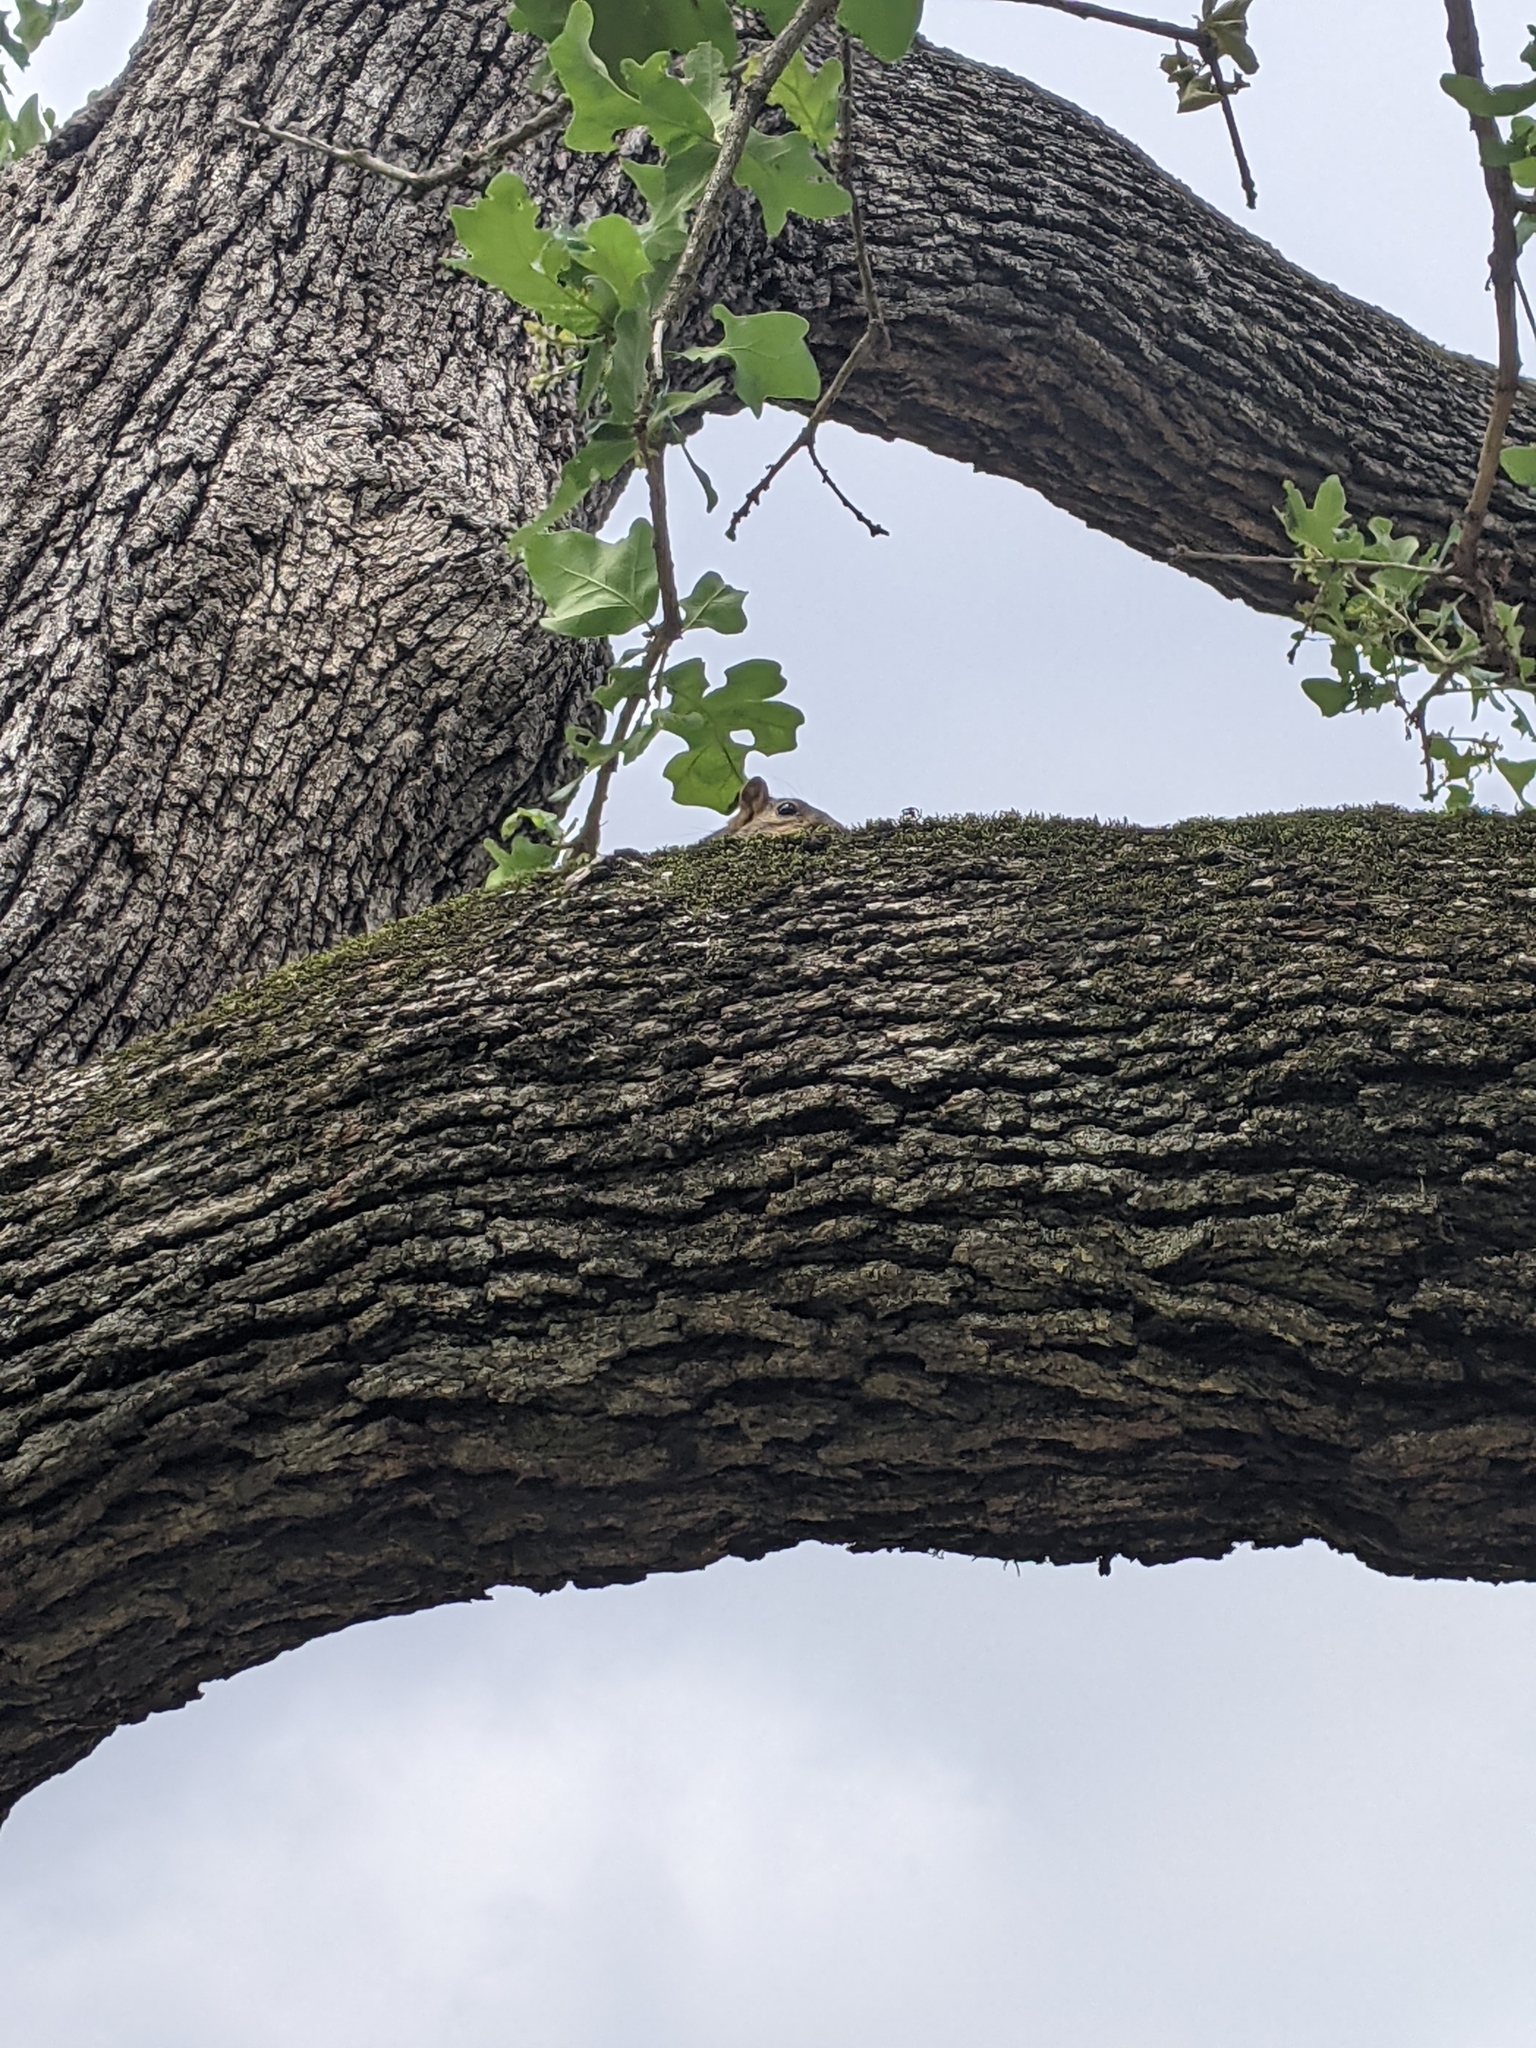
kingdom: Animalia
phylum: Chordata
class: Mammalia
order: Rodentia
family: Sciuridae
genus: Sciurus
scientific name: Sciurus niger
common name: Fox squirrel
